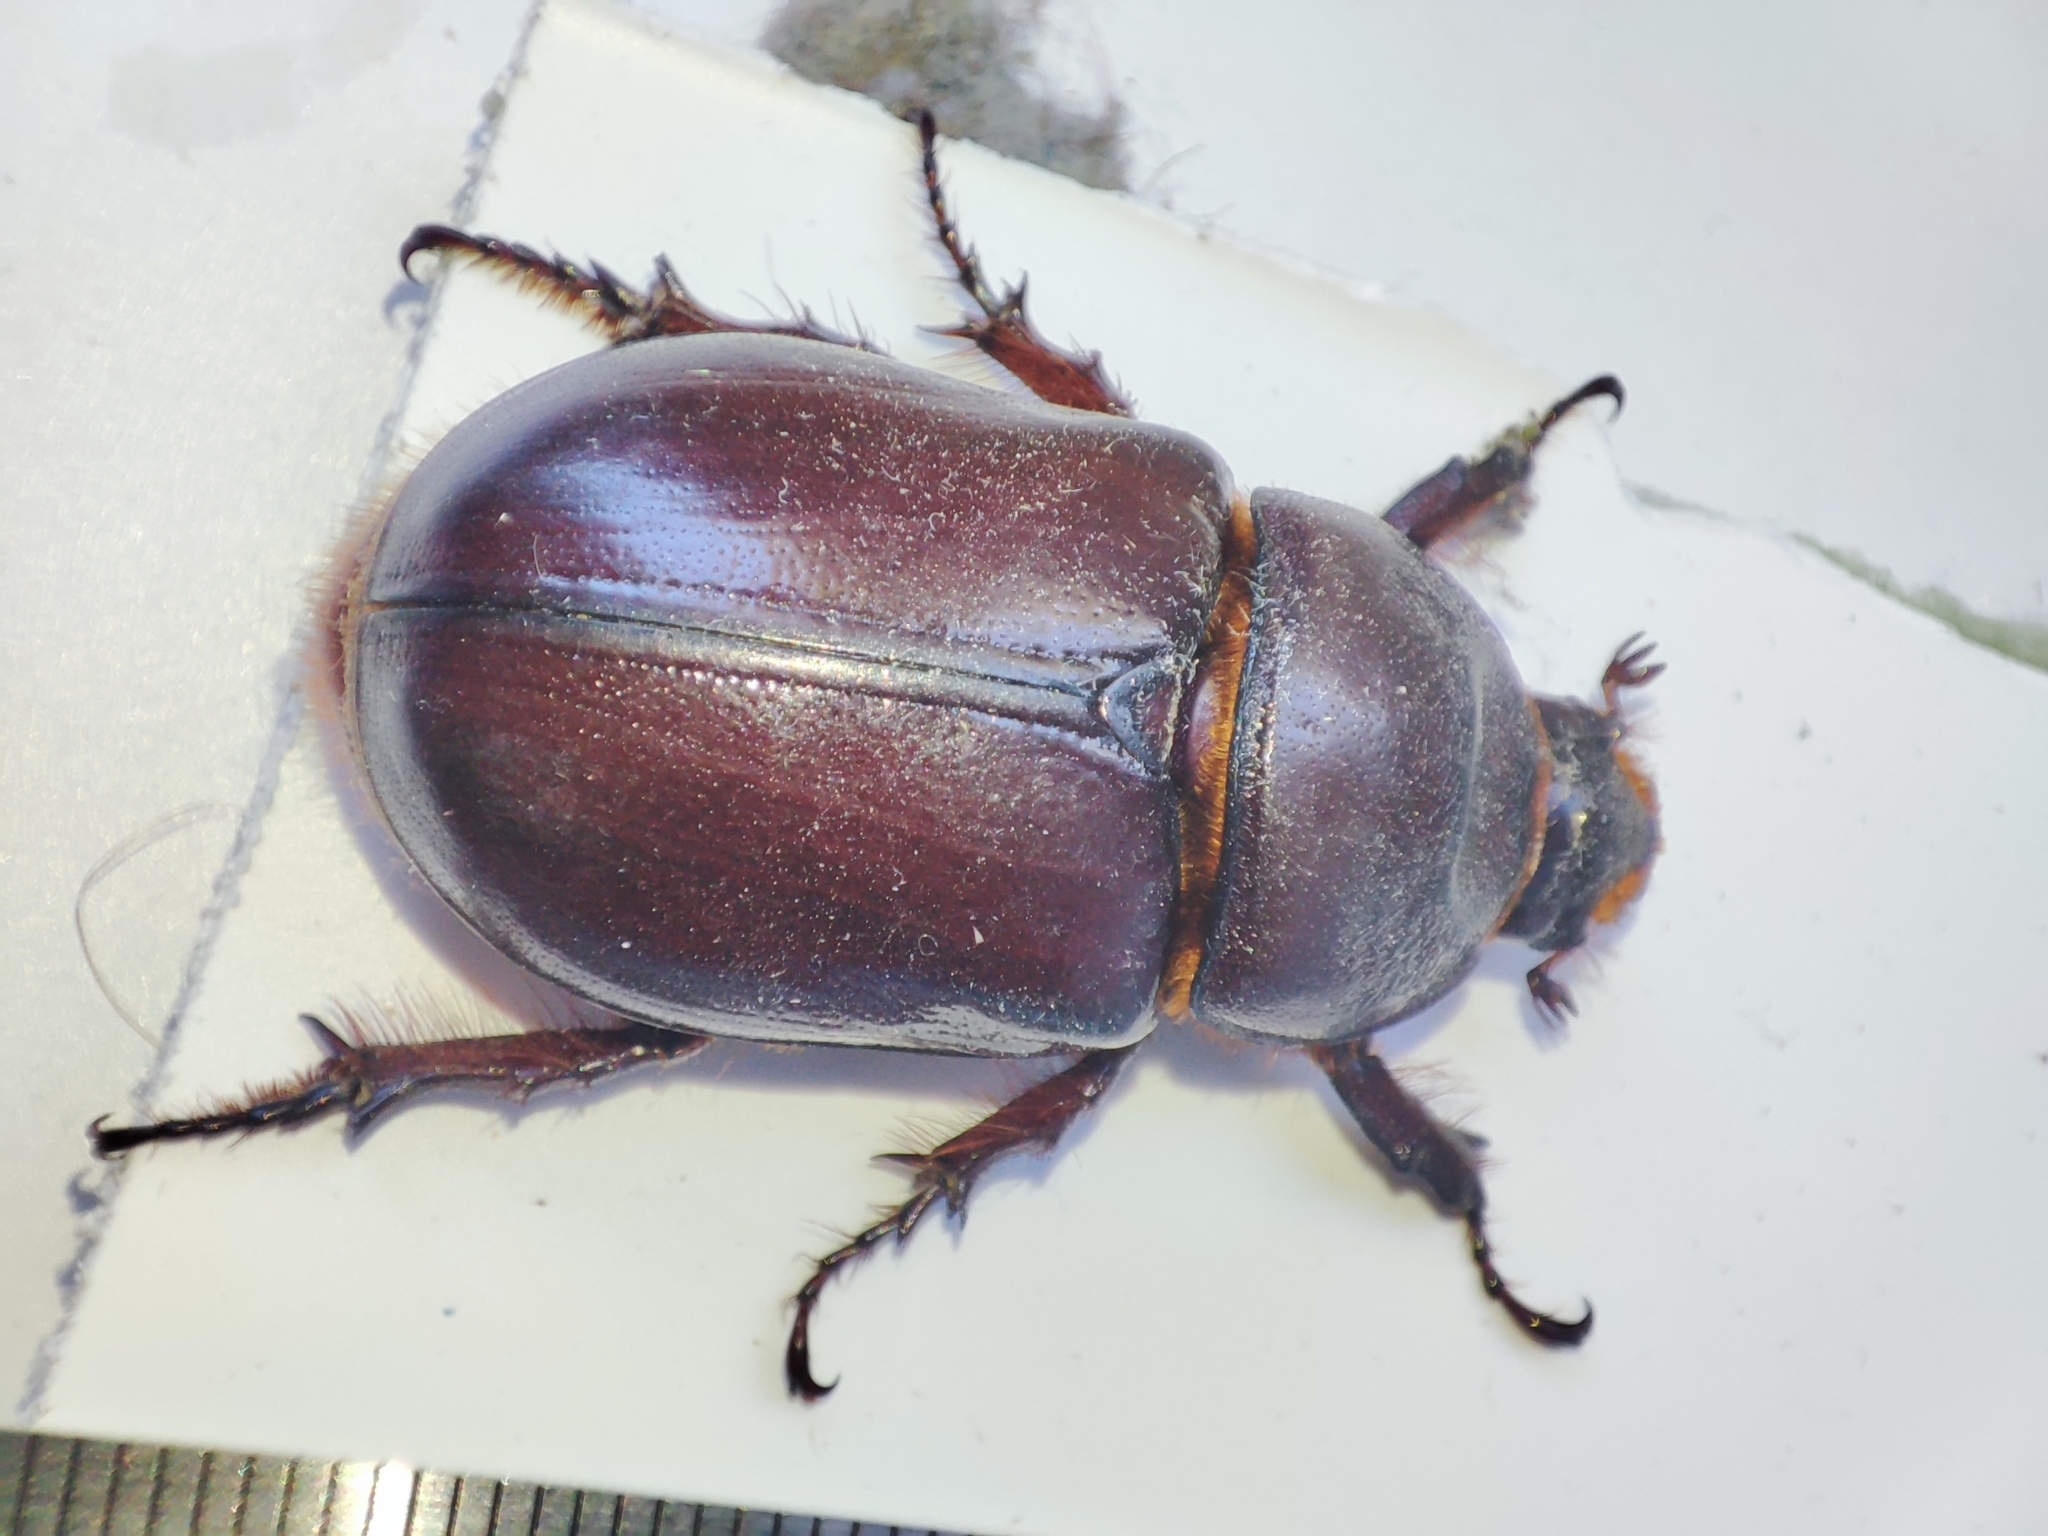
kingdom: Animalia
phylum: Arthropoda
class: Insecta
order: Coleoptera
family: Scarabaeidae
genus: Oryctes
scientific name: Oryctes nasicornis
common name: European rhinoceros beetle
